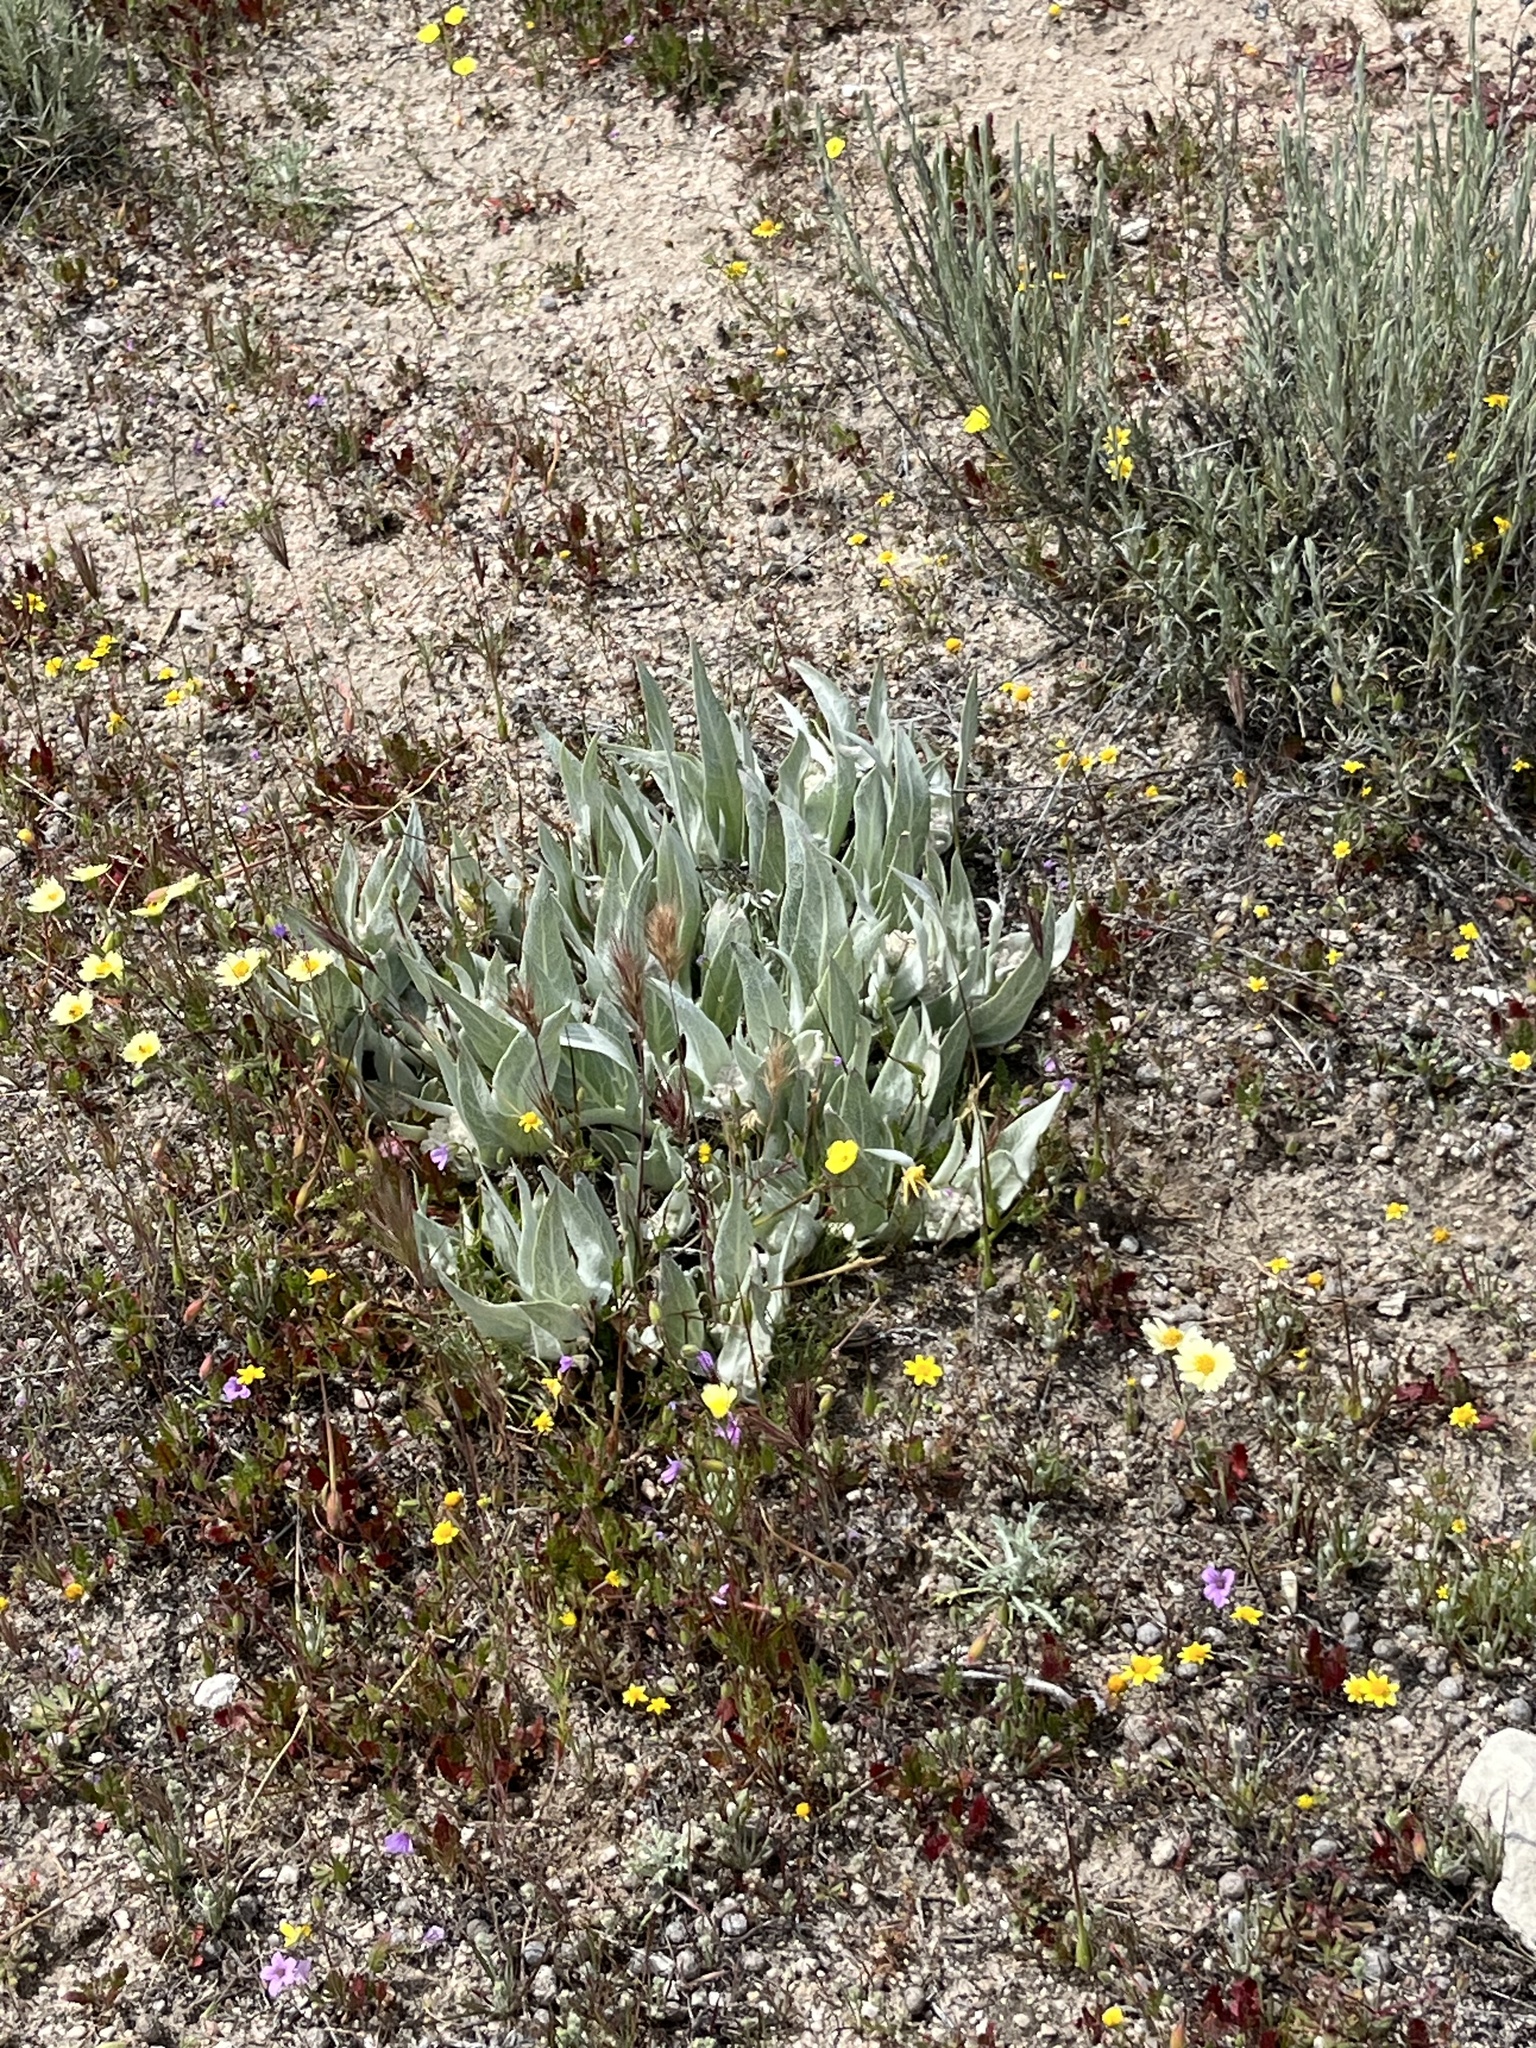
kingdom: Plantae
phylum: Tracheophyta
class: Magnoliopsida
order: Gentianales
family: Apocynaceae
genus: Asclepias
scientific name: Asclepias vestita
